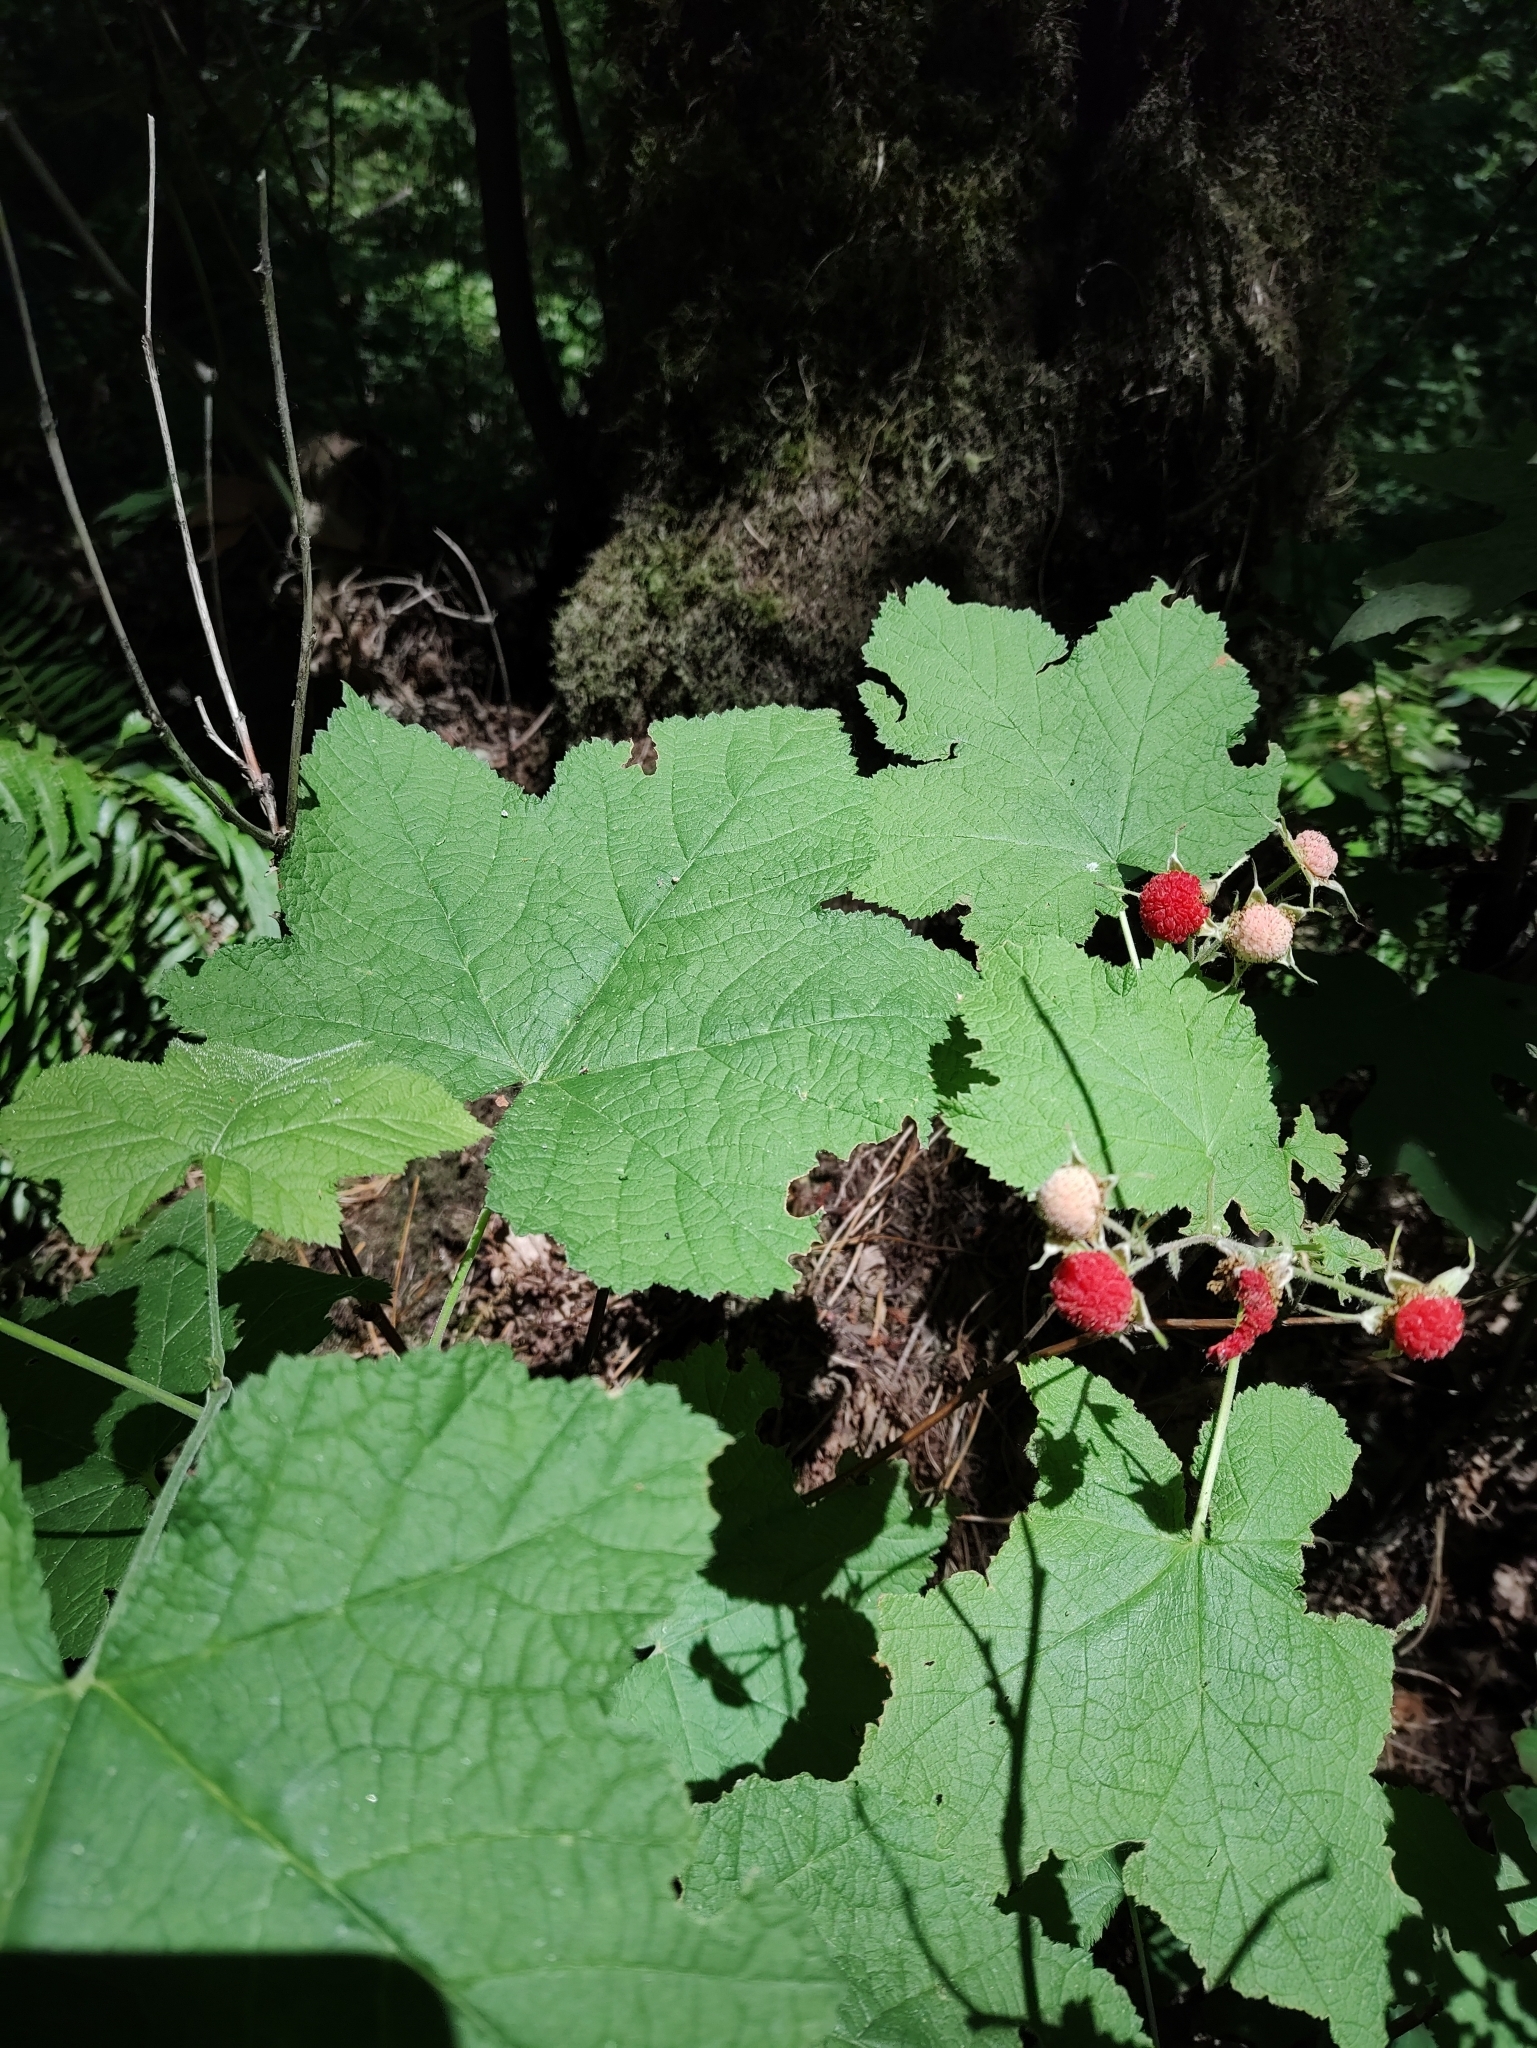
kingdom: Plantae
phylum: Tracheophyta
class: Magnoliopsida
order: Rosales
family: Rosaceae
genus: Rubus
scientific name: Rubus parviflorus
